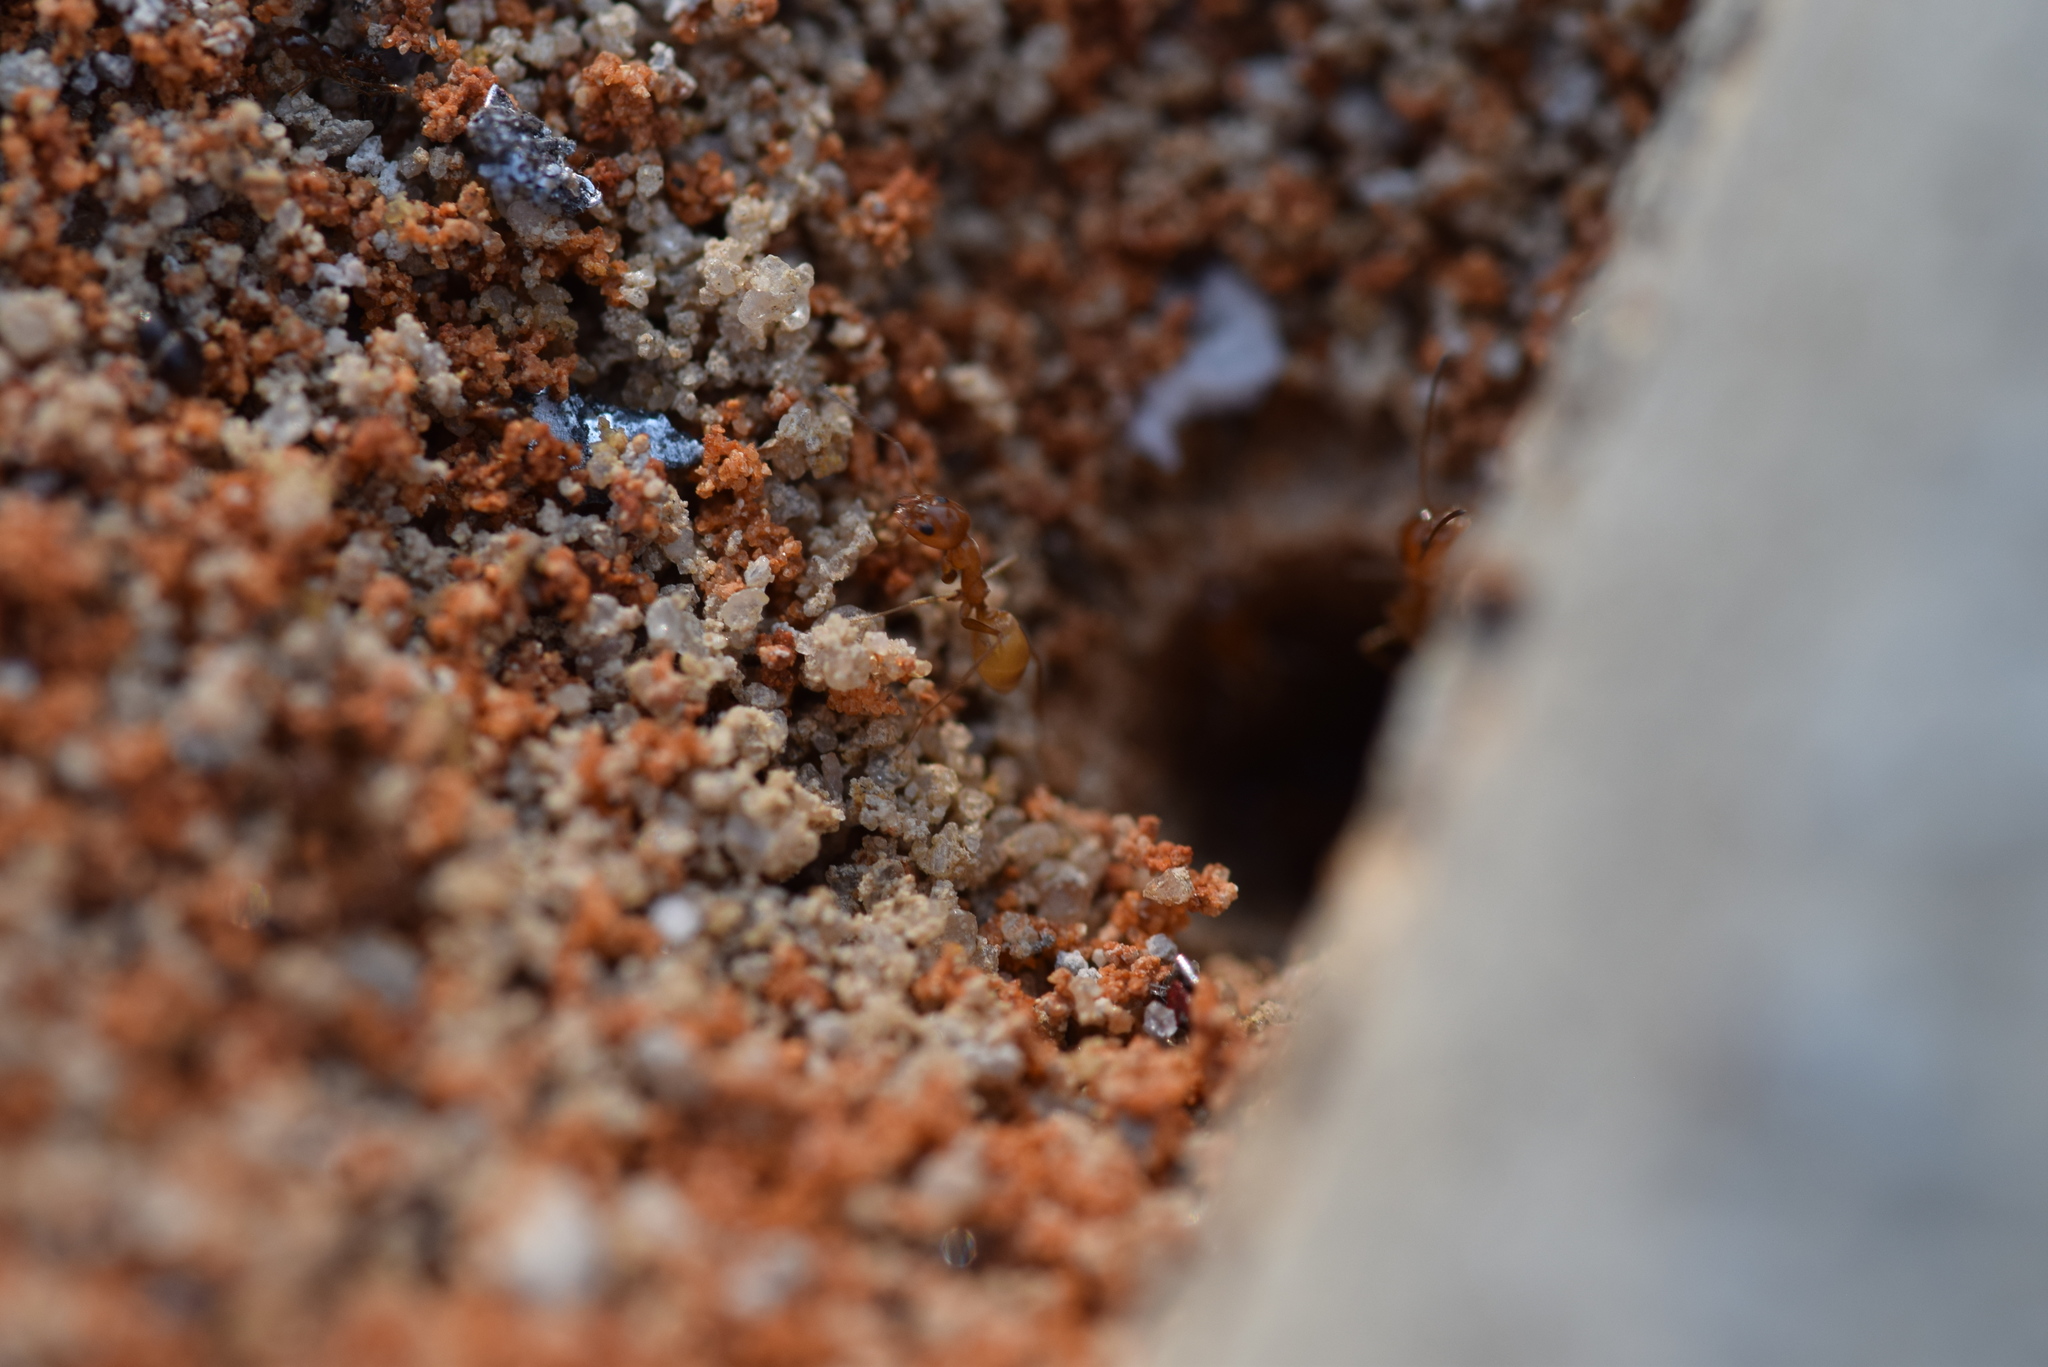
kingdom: Animalia
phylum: Arthropoda
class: Insecta
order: Hymenoptera
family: Formicidae
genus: Dorymyrmex
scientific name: Dorymyrmex flavus
